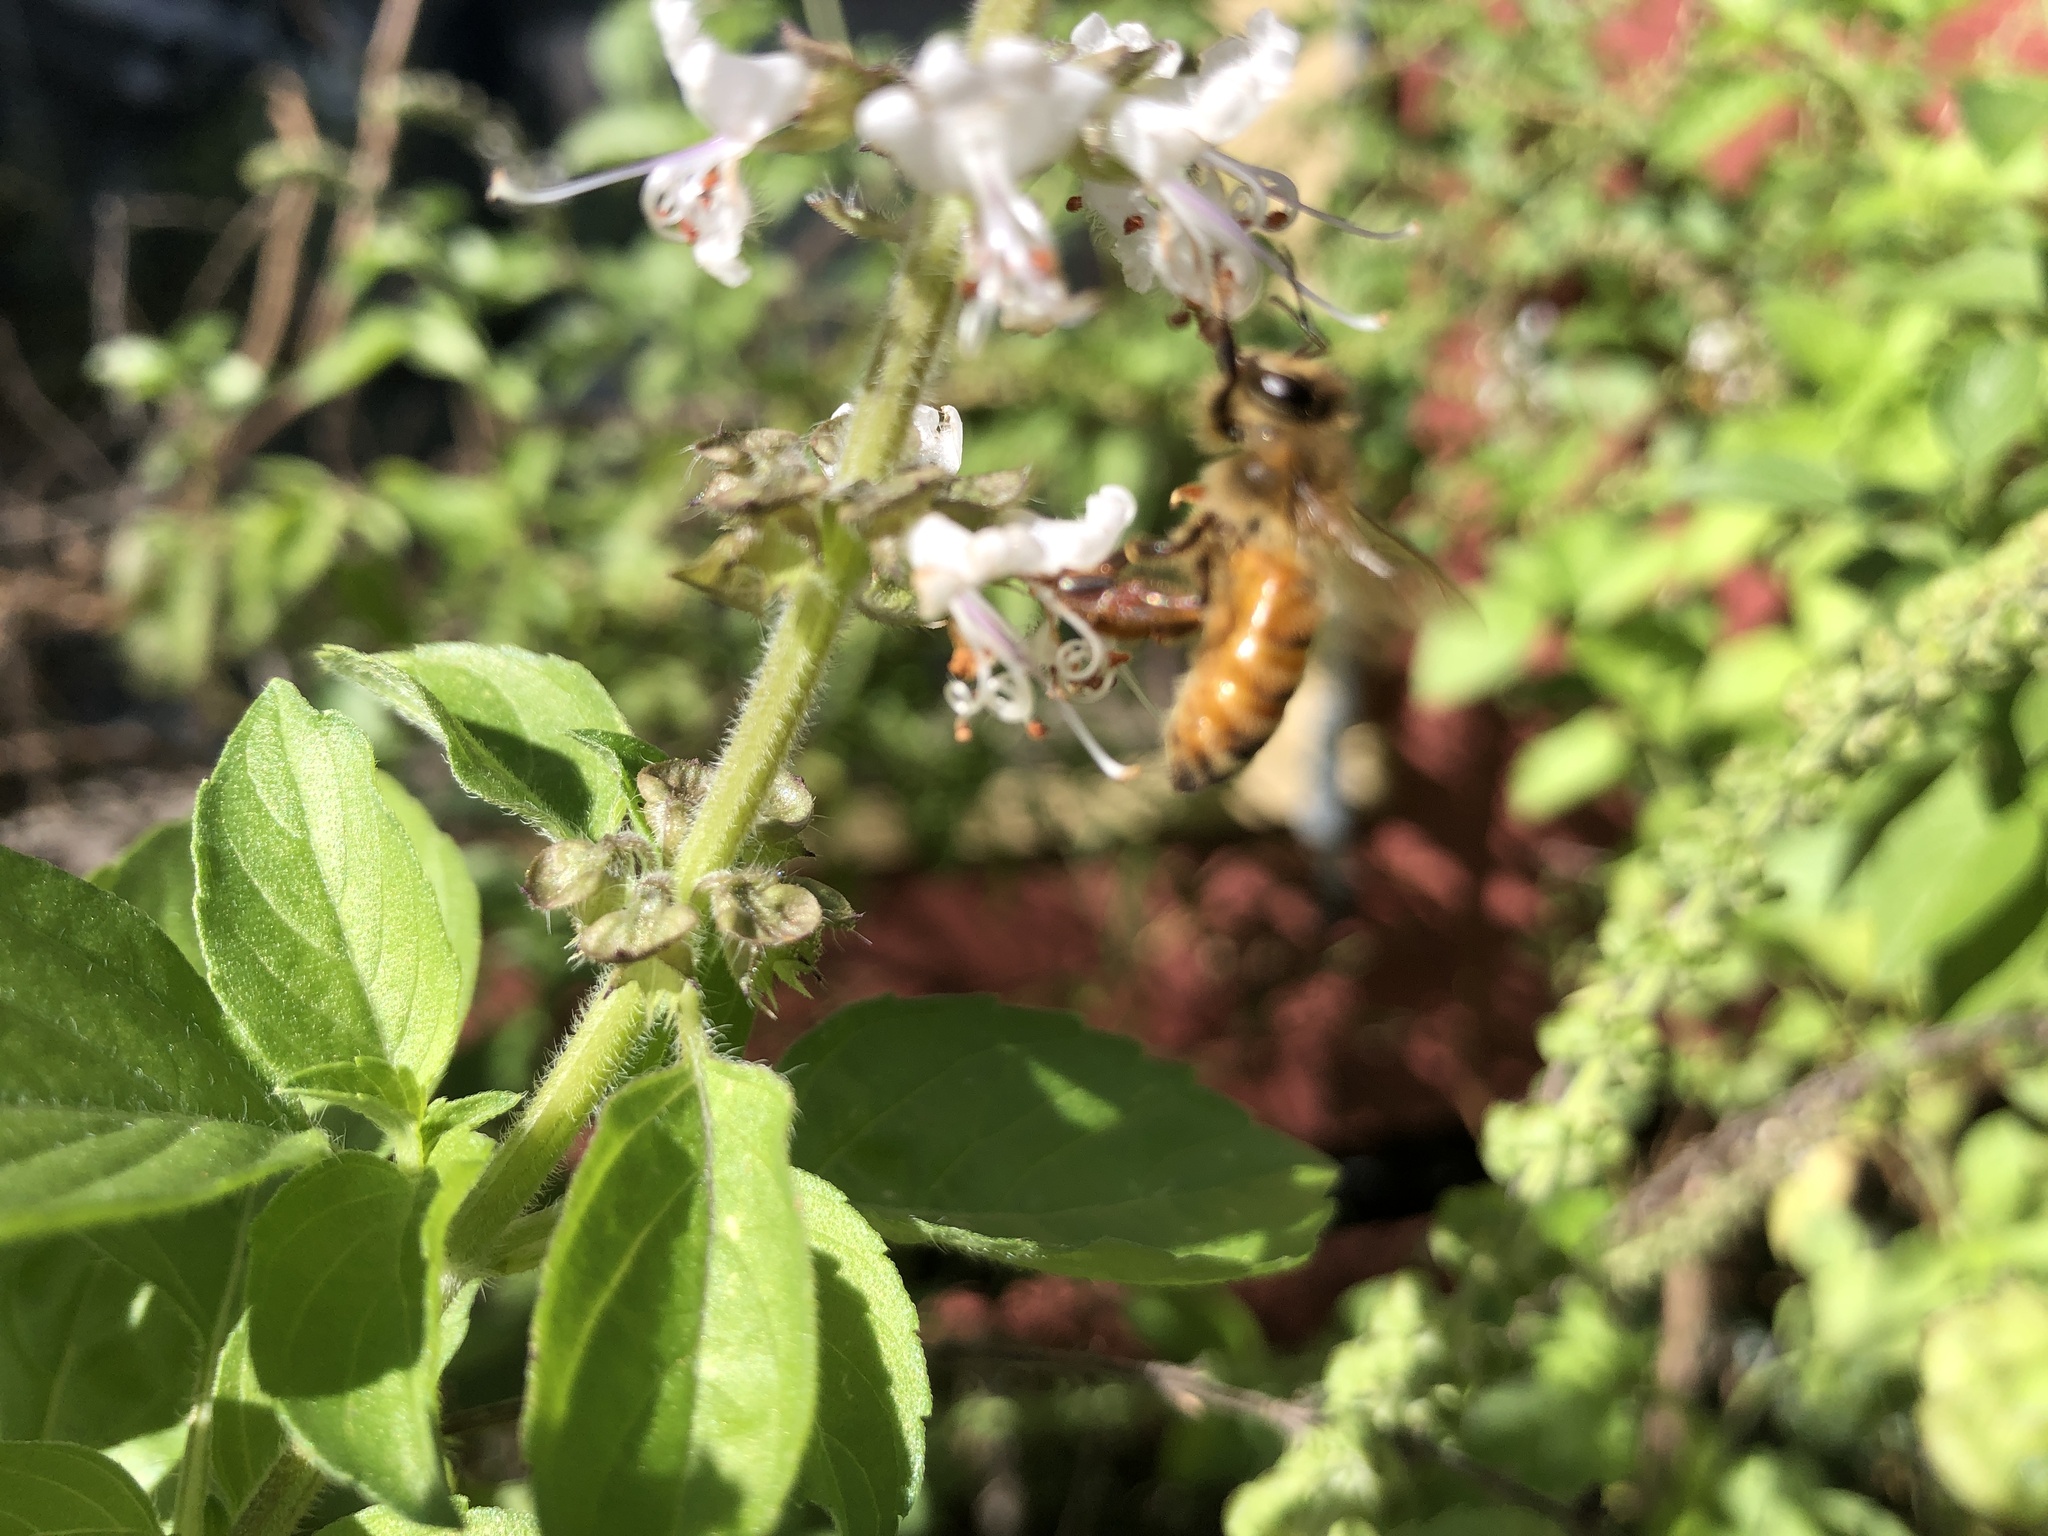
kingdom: Animalia
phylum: Arthropoda
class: Insecta
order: Hymenoptera
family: Apidae
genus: Apis
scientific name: Apis mellifera
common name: Honey bee
